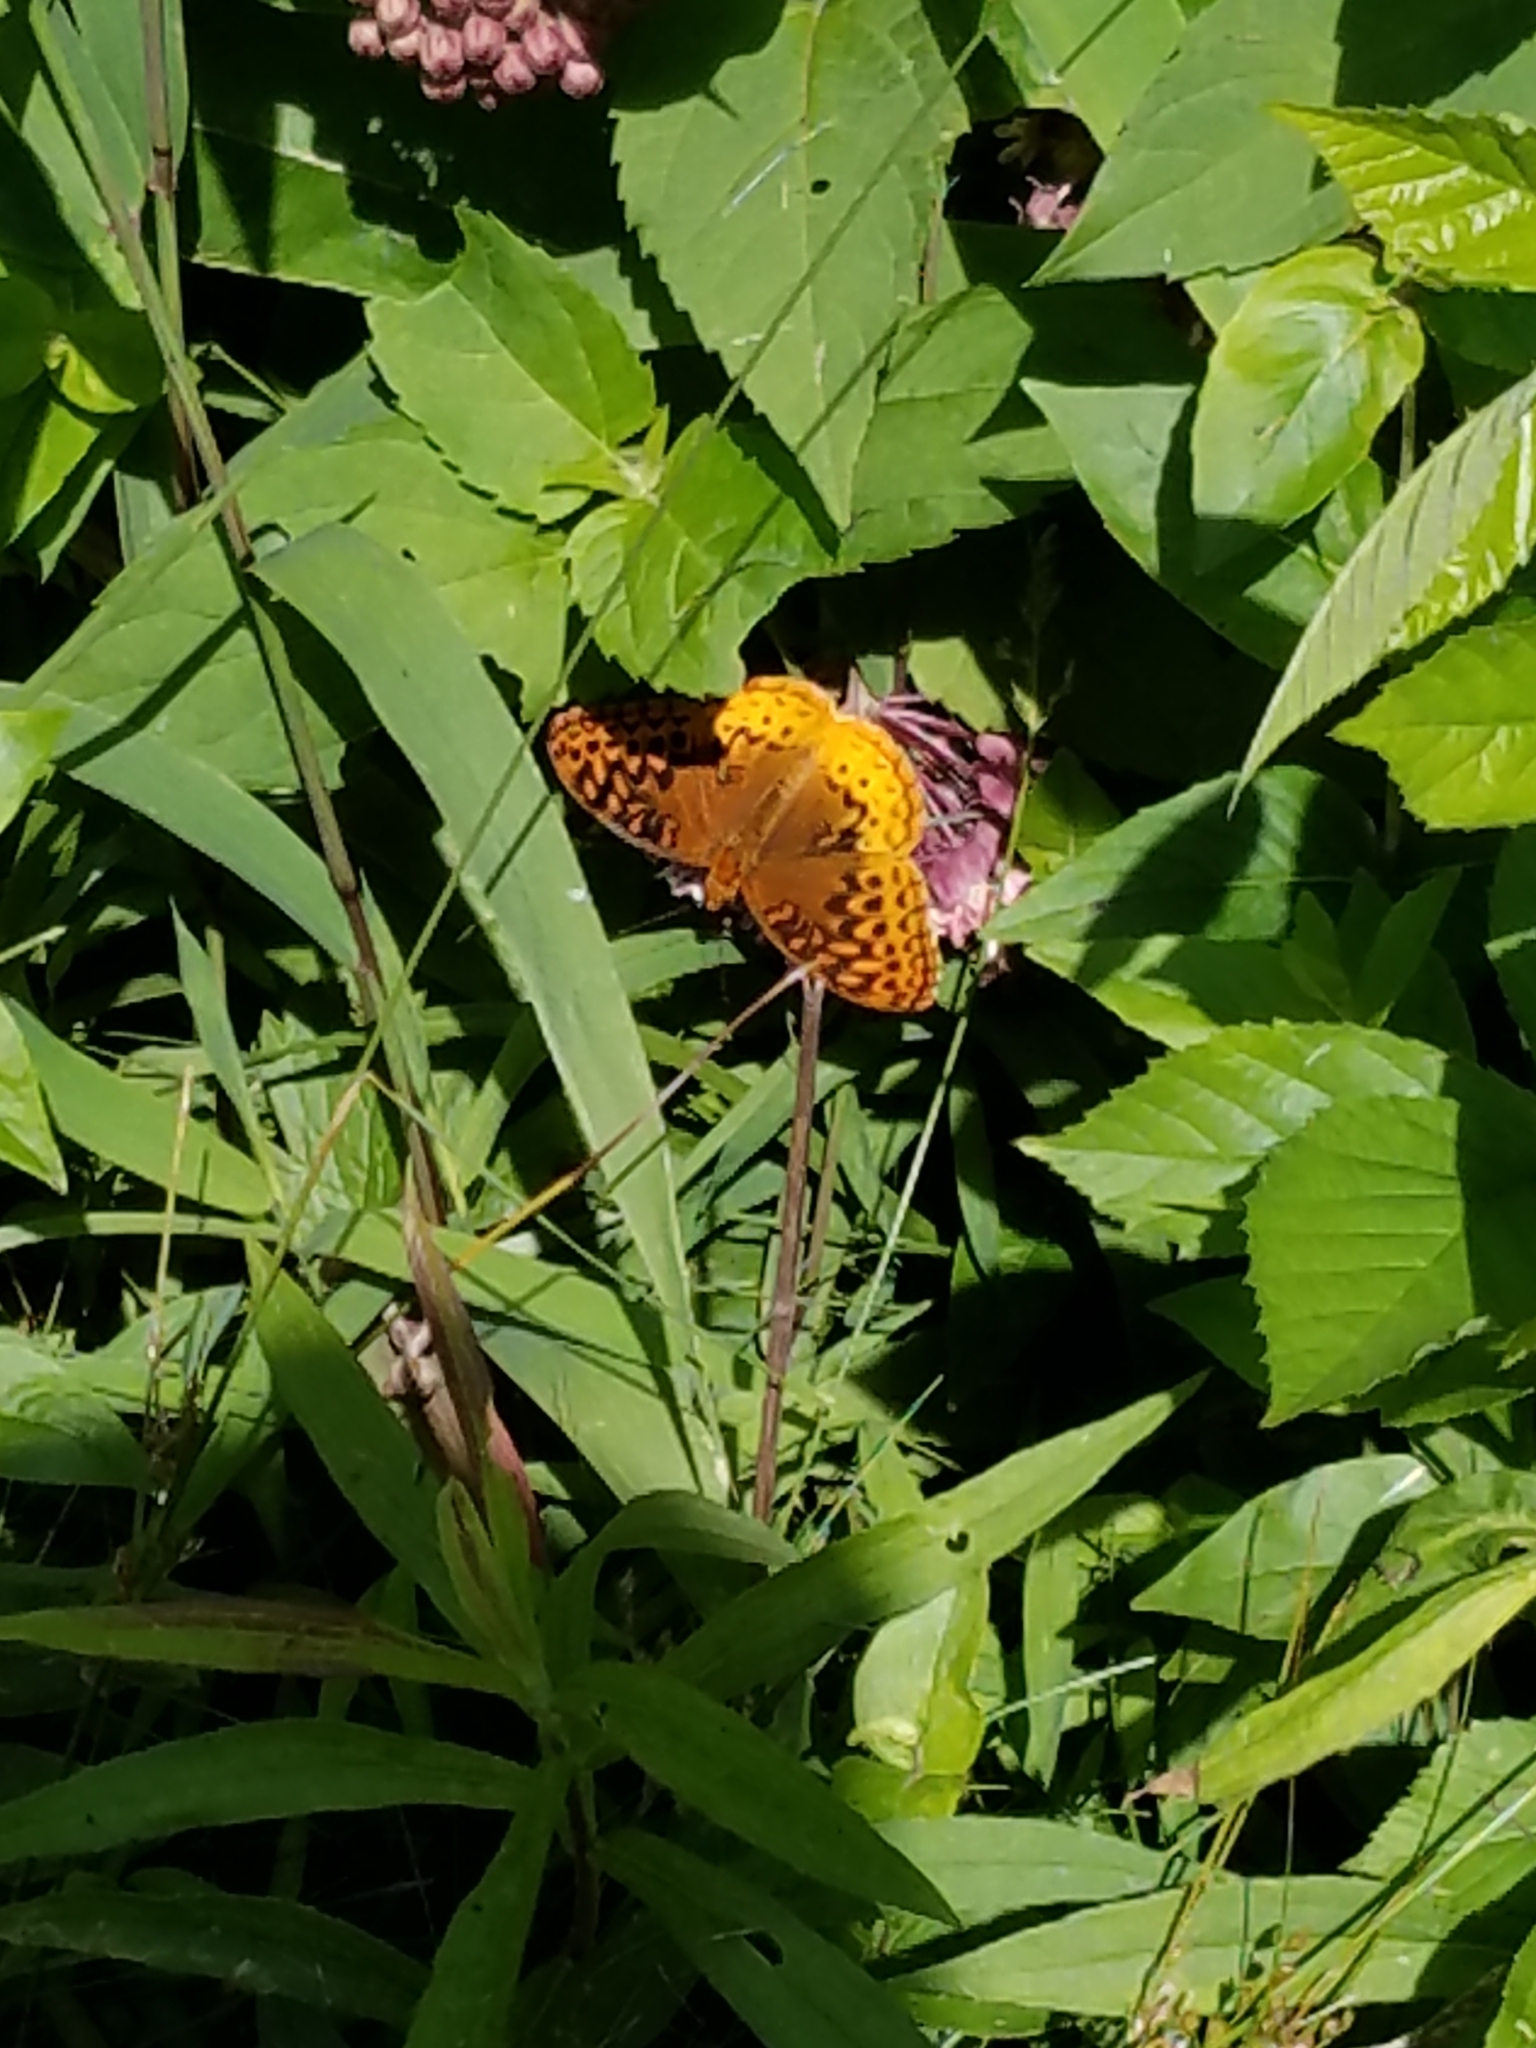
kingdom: Animalia
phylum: Arthropoda
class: Insecta
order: Lepidoptera
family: Nymphalidae
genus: Speyeria
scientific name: Speyeria cybele
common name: Great spangled fritillary
